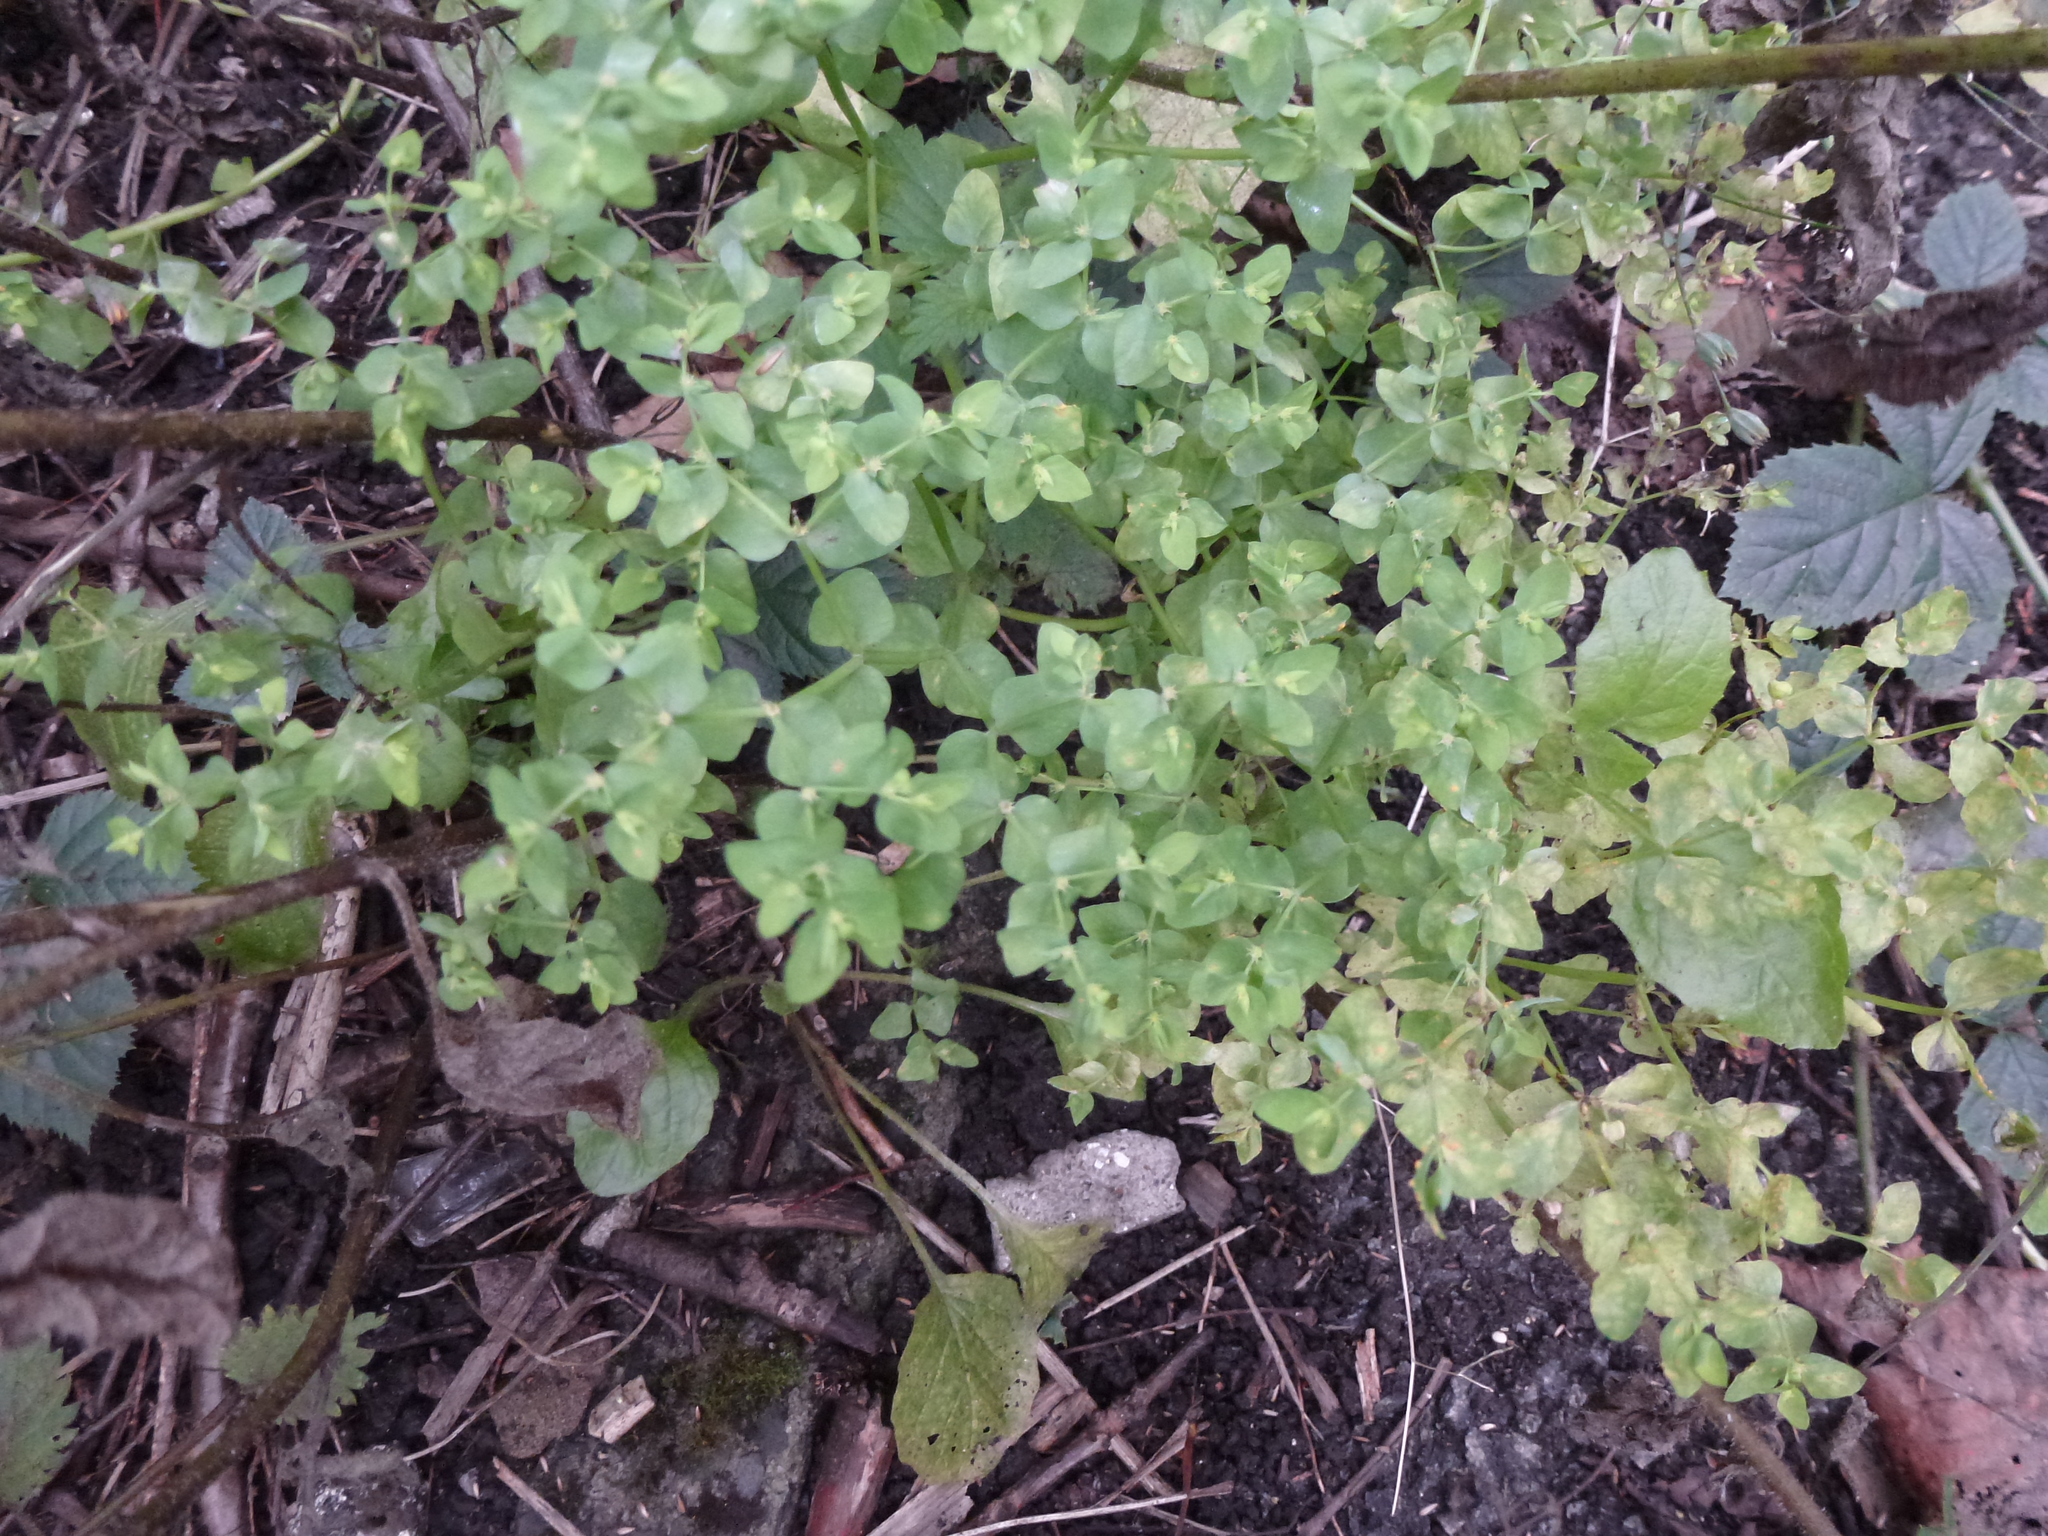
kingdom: Plantae
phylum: Tracheophyta
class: Magnoliopsida
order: Malpighiales
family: Euphorbiaceae
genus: Euphorbia
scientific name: Euphorbia peplus
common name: Petty spurge
